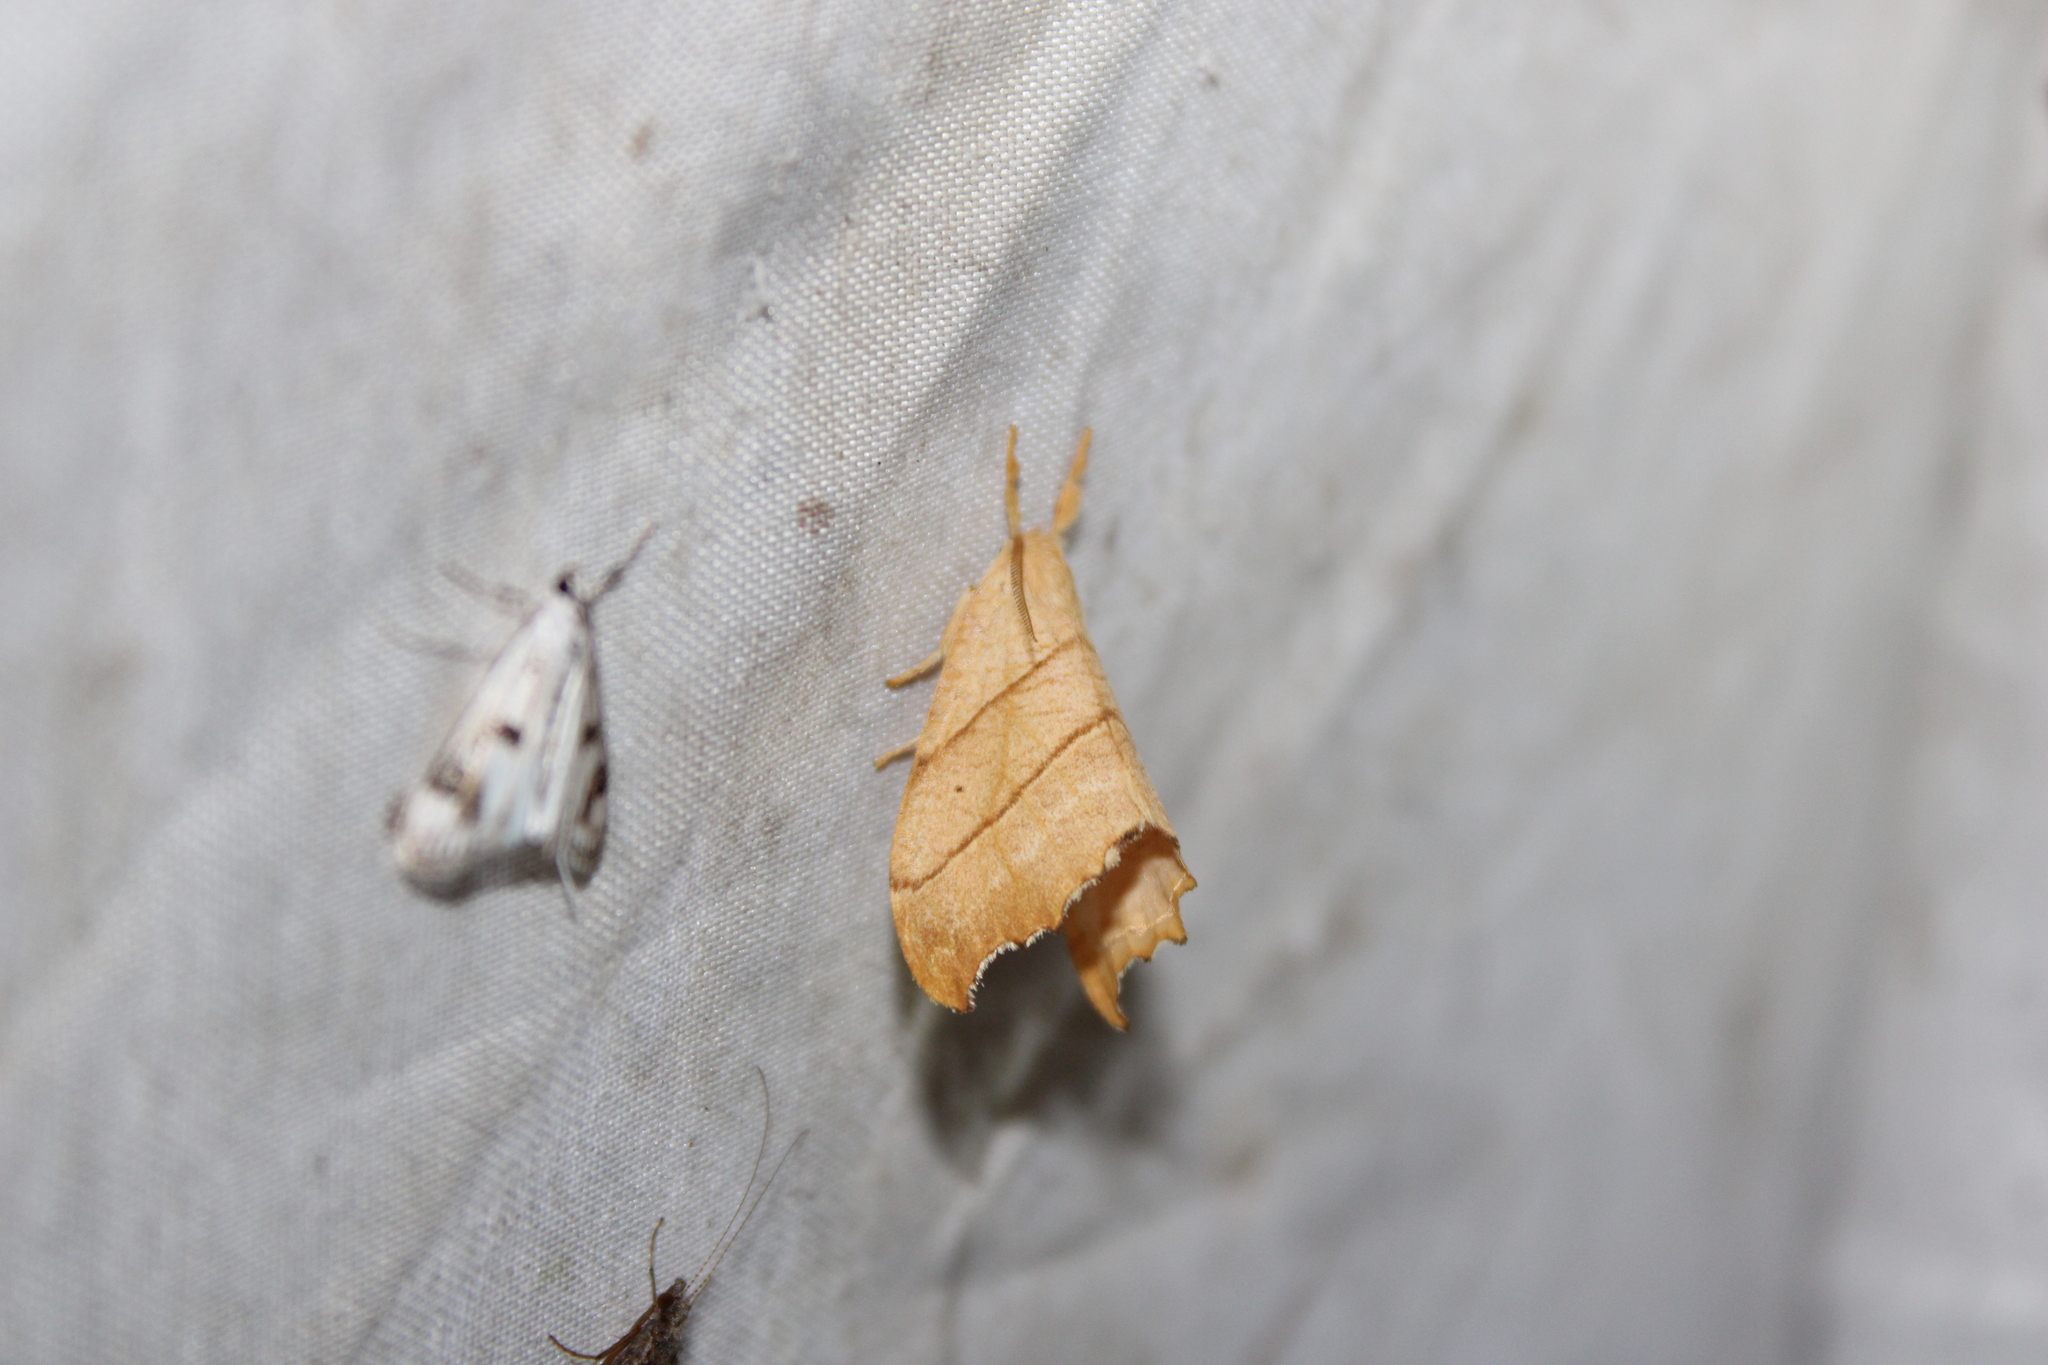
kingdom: Animalia
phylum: Arthropoda
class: Insecta
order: Lepidoptera
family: Drepanidae
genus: Falcaria
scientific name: Falcaria bilineata
